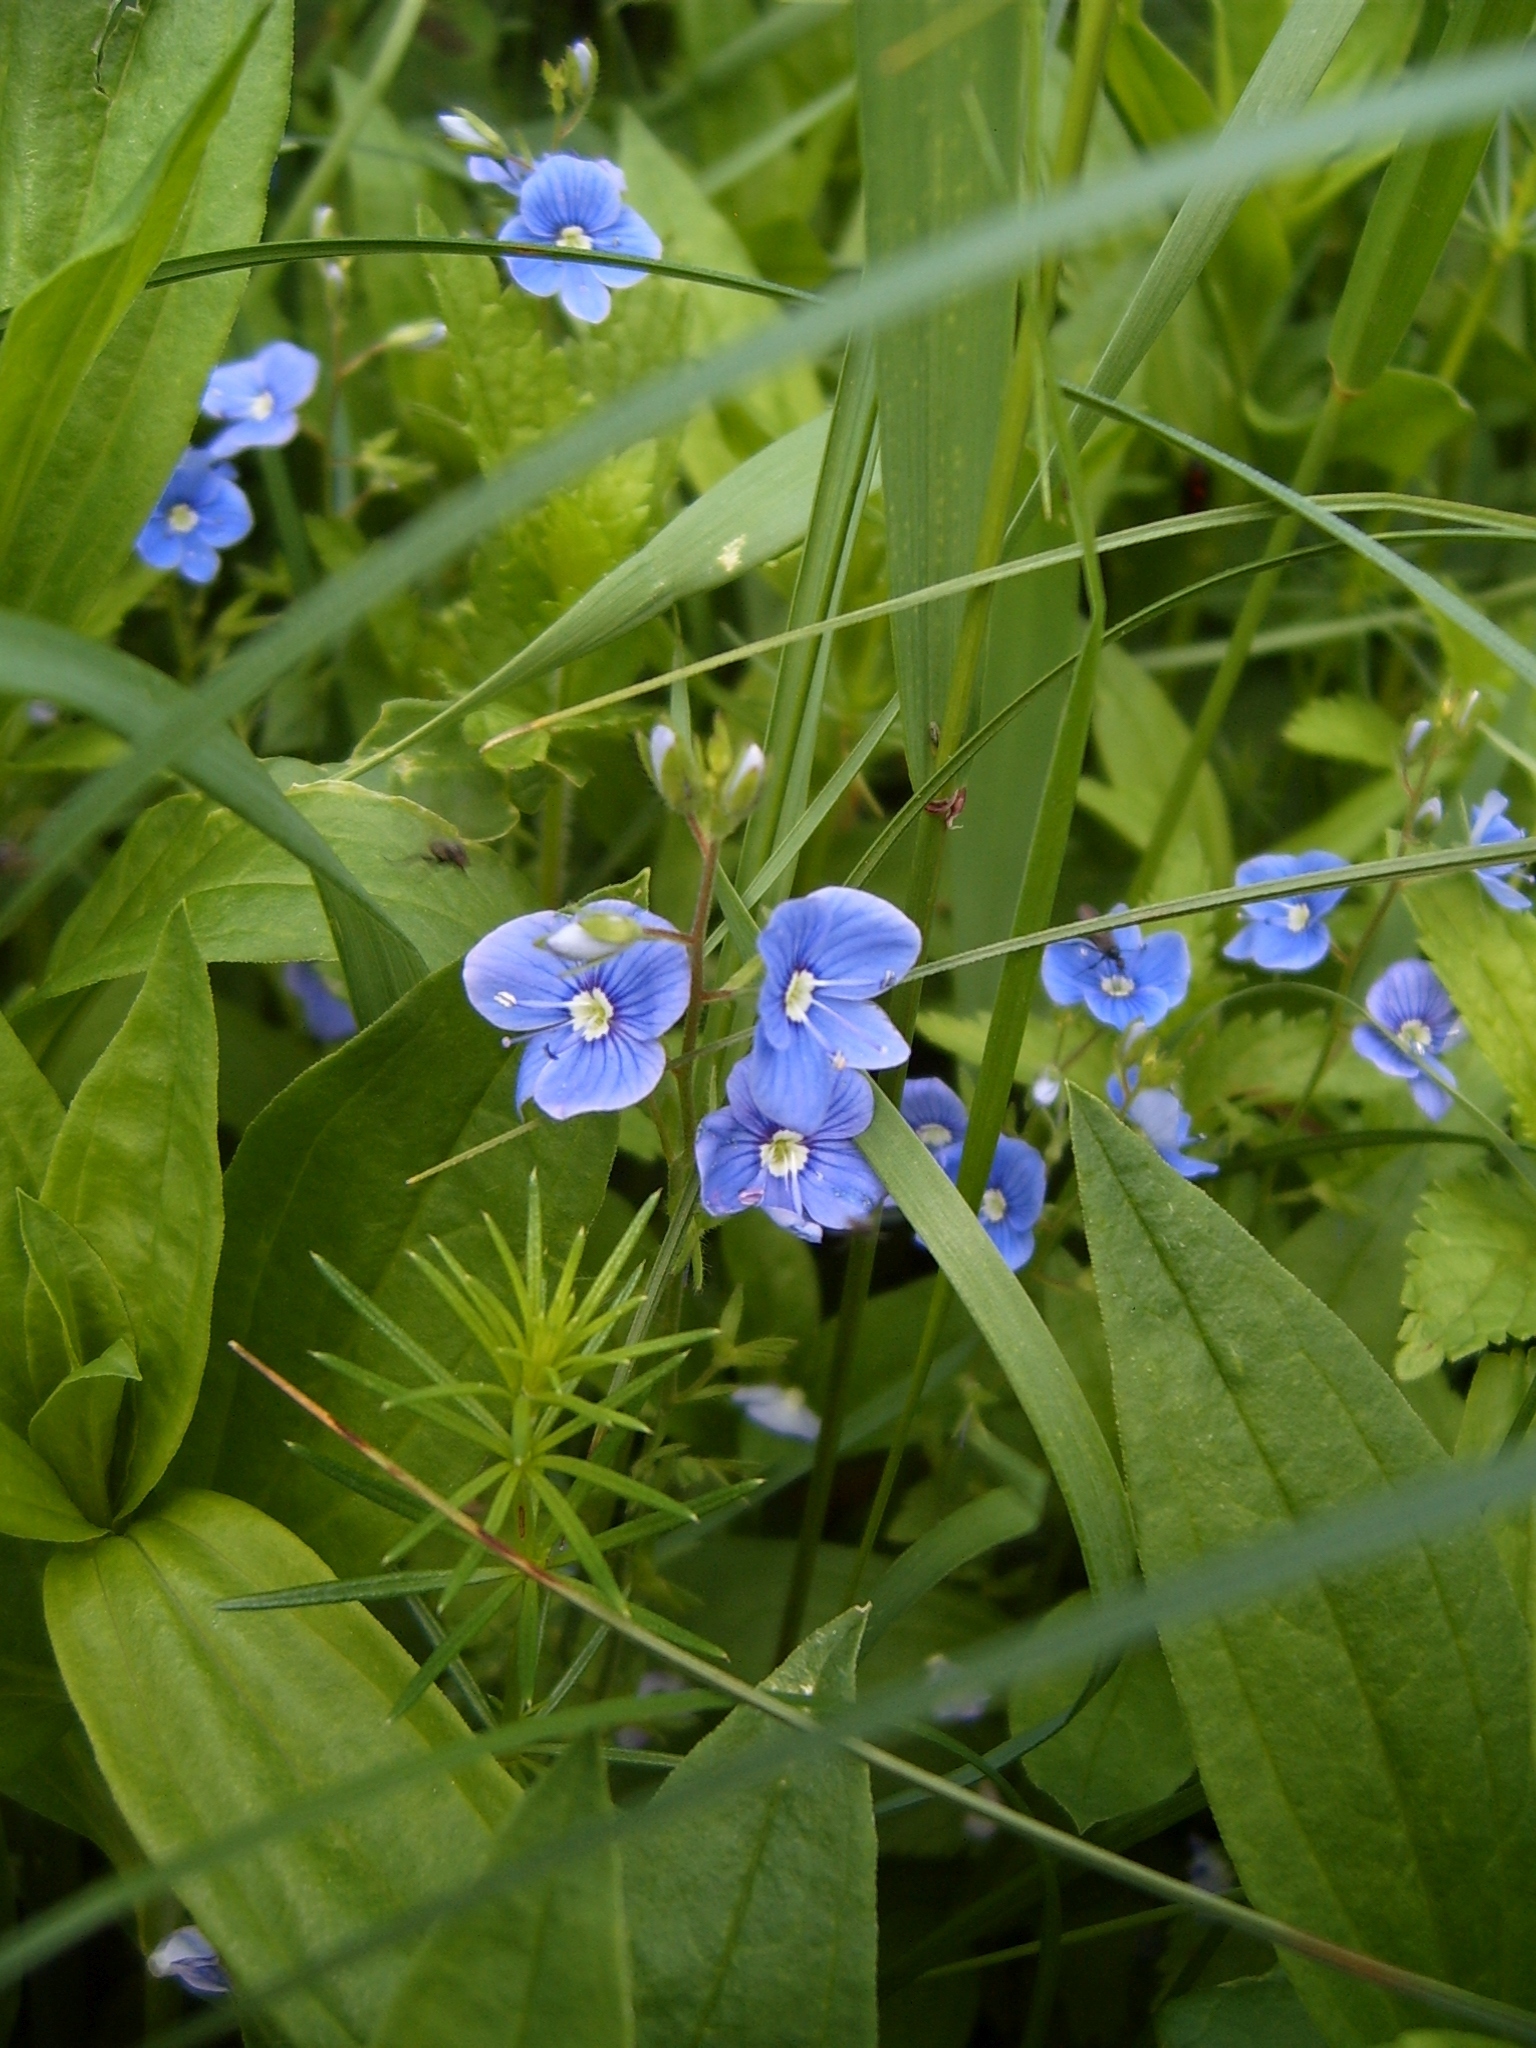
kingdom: Plantae
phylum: Tracheophyta
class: Magnoliopsida
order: Lamiales
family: Plantaginaceae
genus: Veronica
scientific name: Veronica chamaedrys
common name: Germander speedwell
